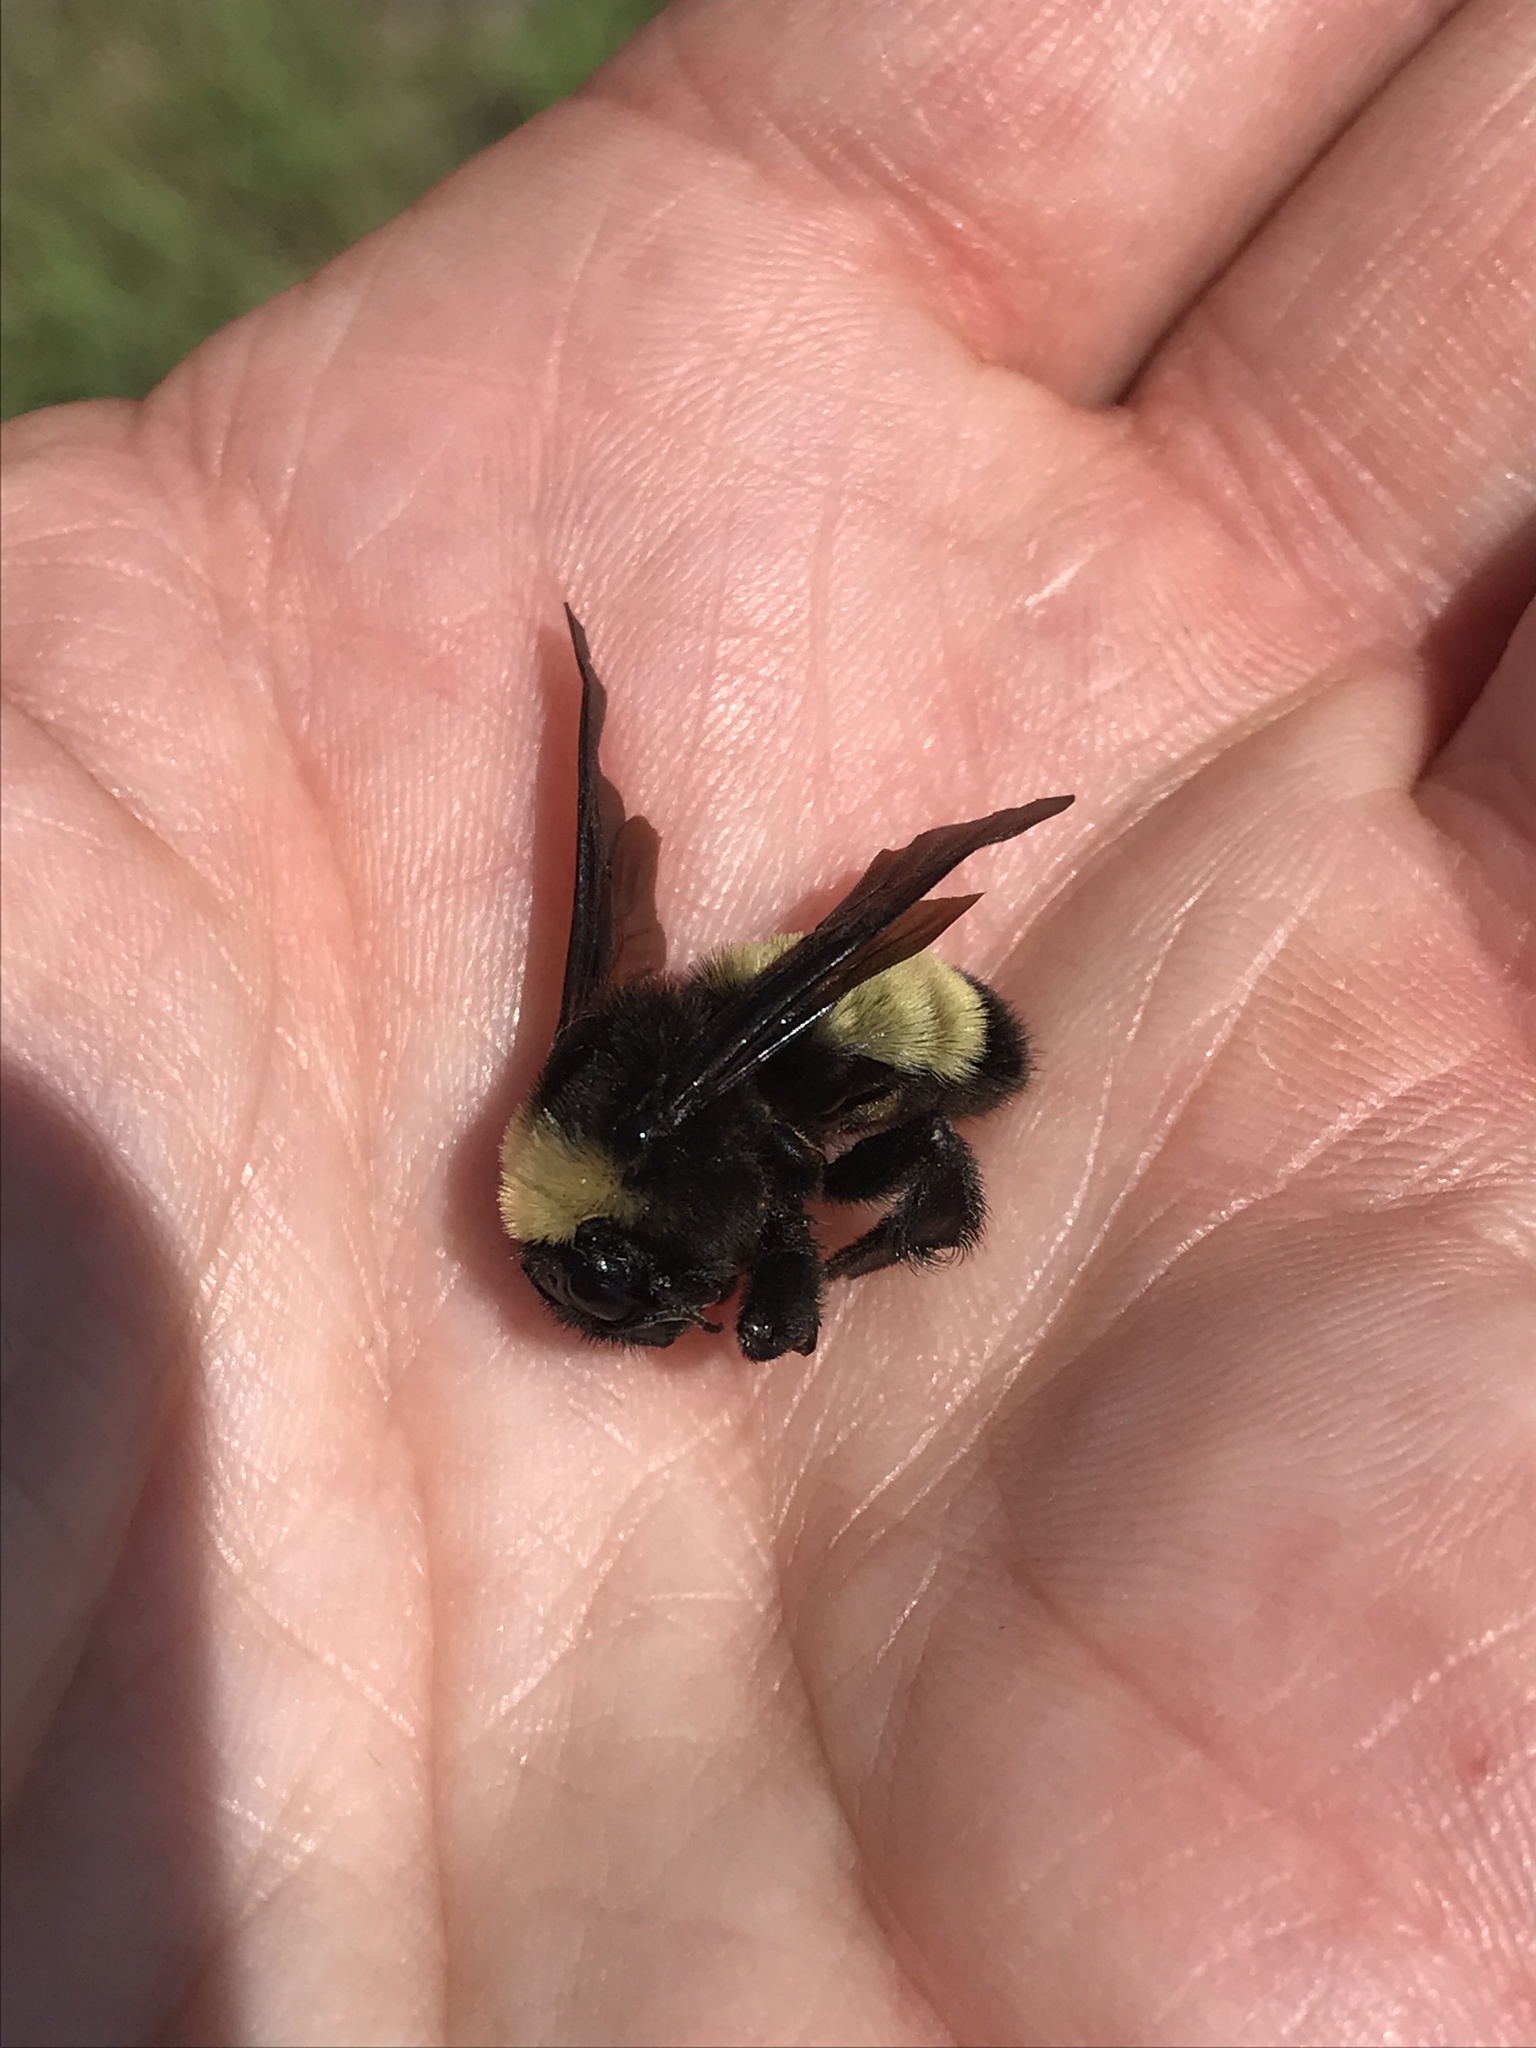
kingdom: Animalia
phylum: Arthropoda
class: Insecta
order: Hymenoptera
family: Apidae
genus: Bombus
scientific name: Bombus pensylvanicus
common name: Bumble bee
